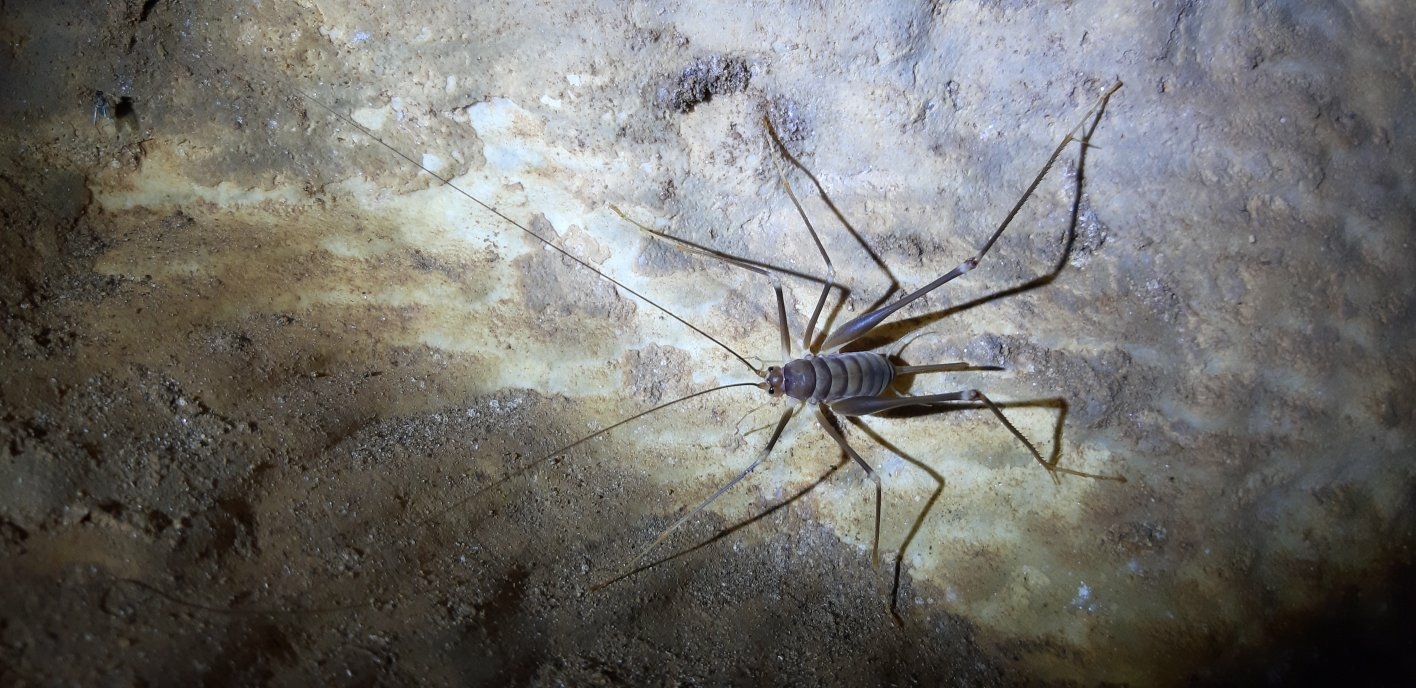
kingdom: Animalia
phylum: Arthropoda
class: Insecta
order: Orthoptera
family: Rhaphidophoridae
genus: Dolichopoda
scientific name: Dolichopoda geniculata
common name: Bended cave-cricket
